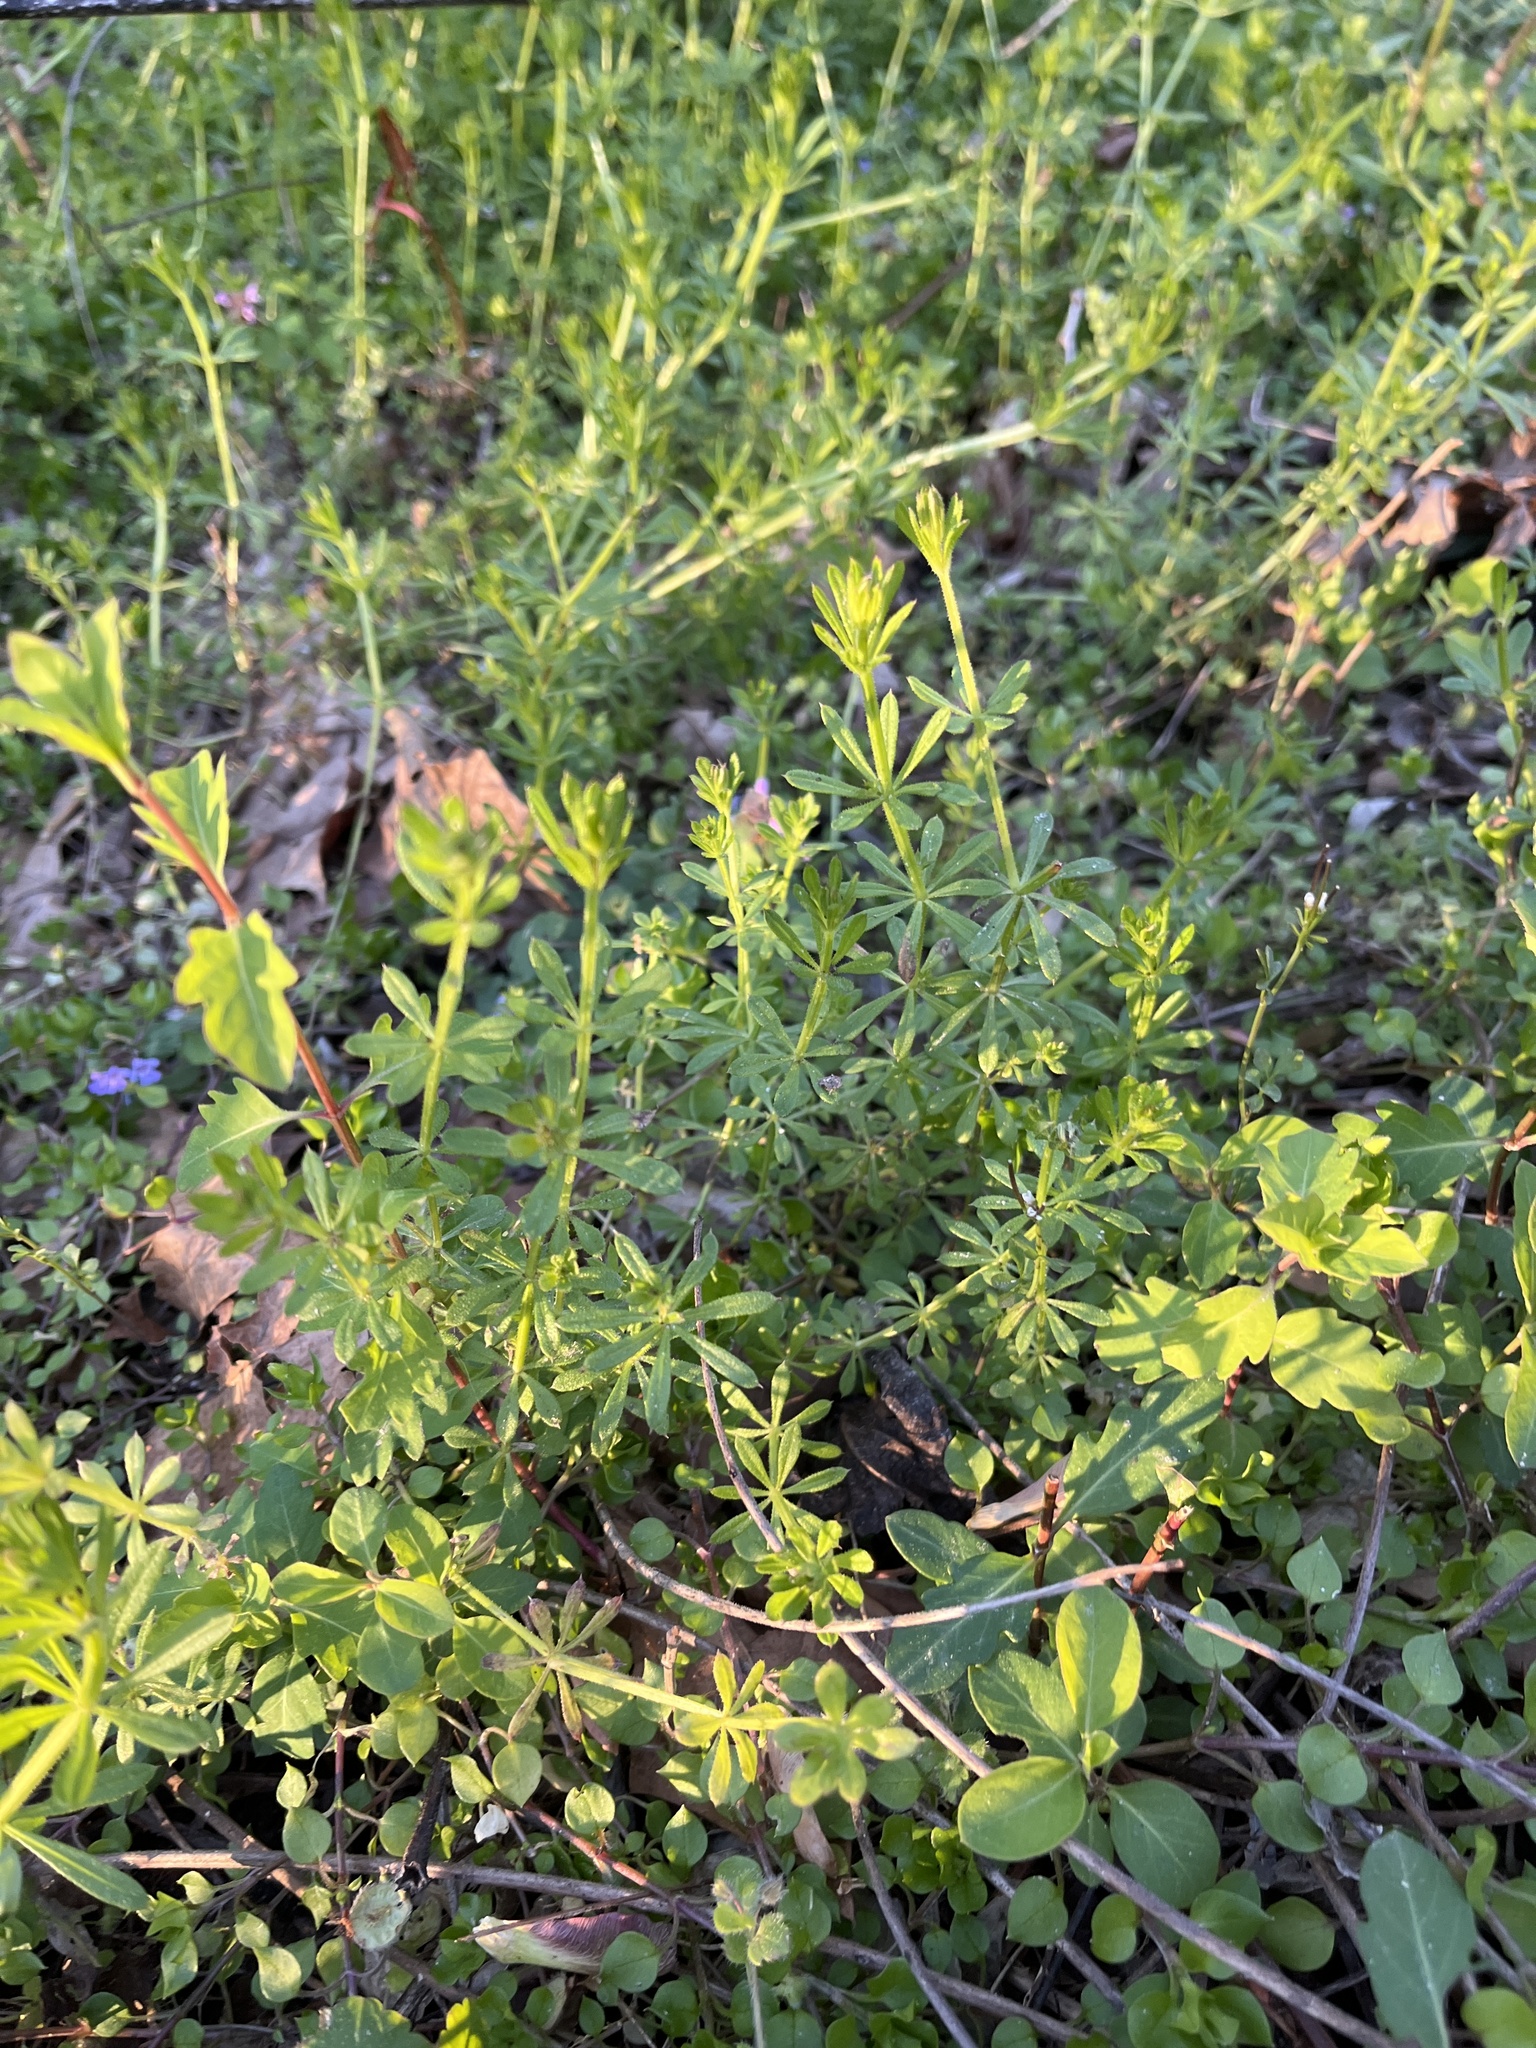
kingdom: Plantae
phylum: Tracheophyta
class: Magnoliopsida
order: Gentianales
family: Rubiaceae
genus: Galium
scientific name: Galium aparine
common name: Cleavers
